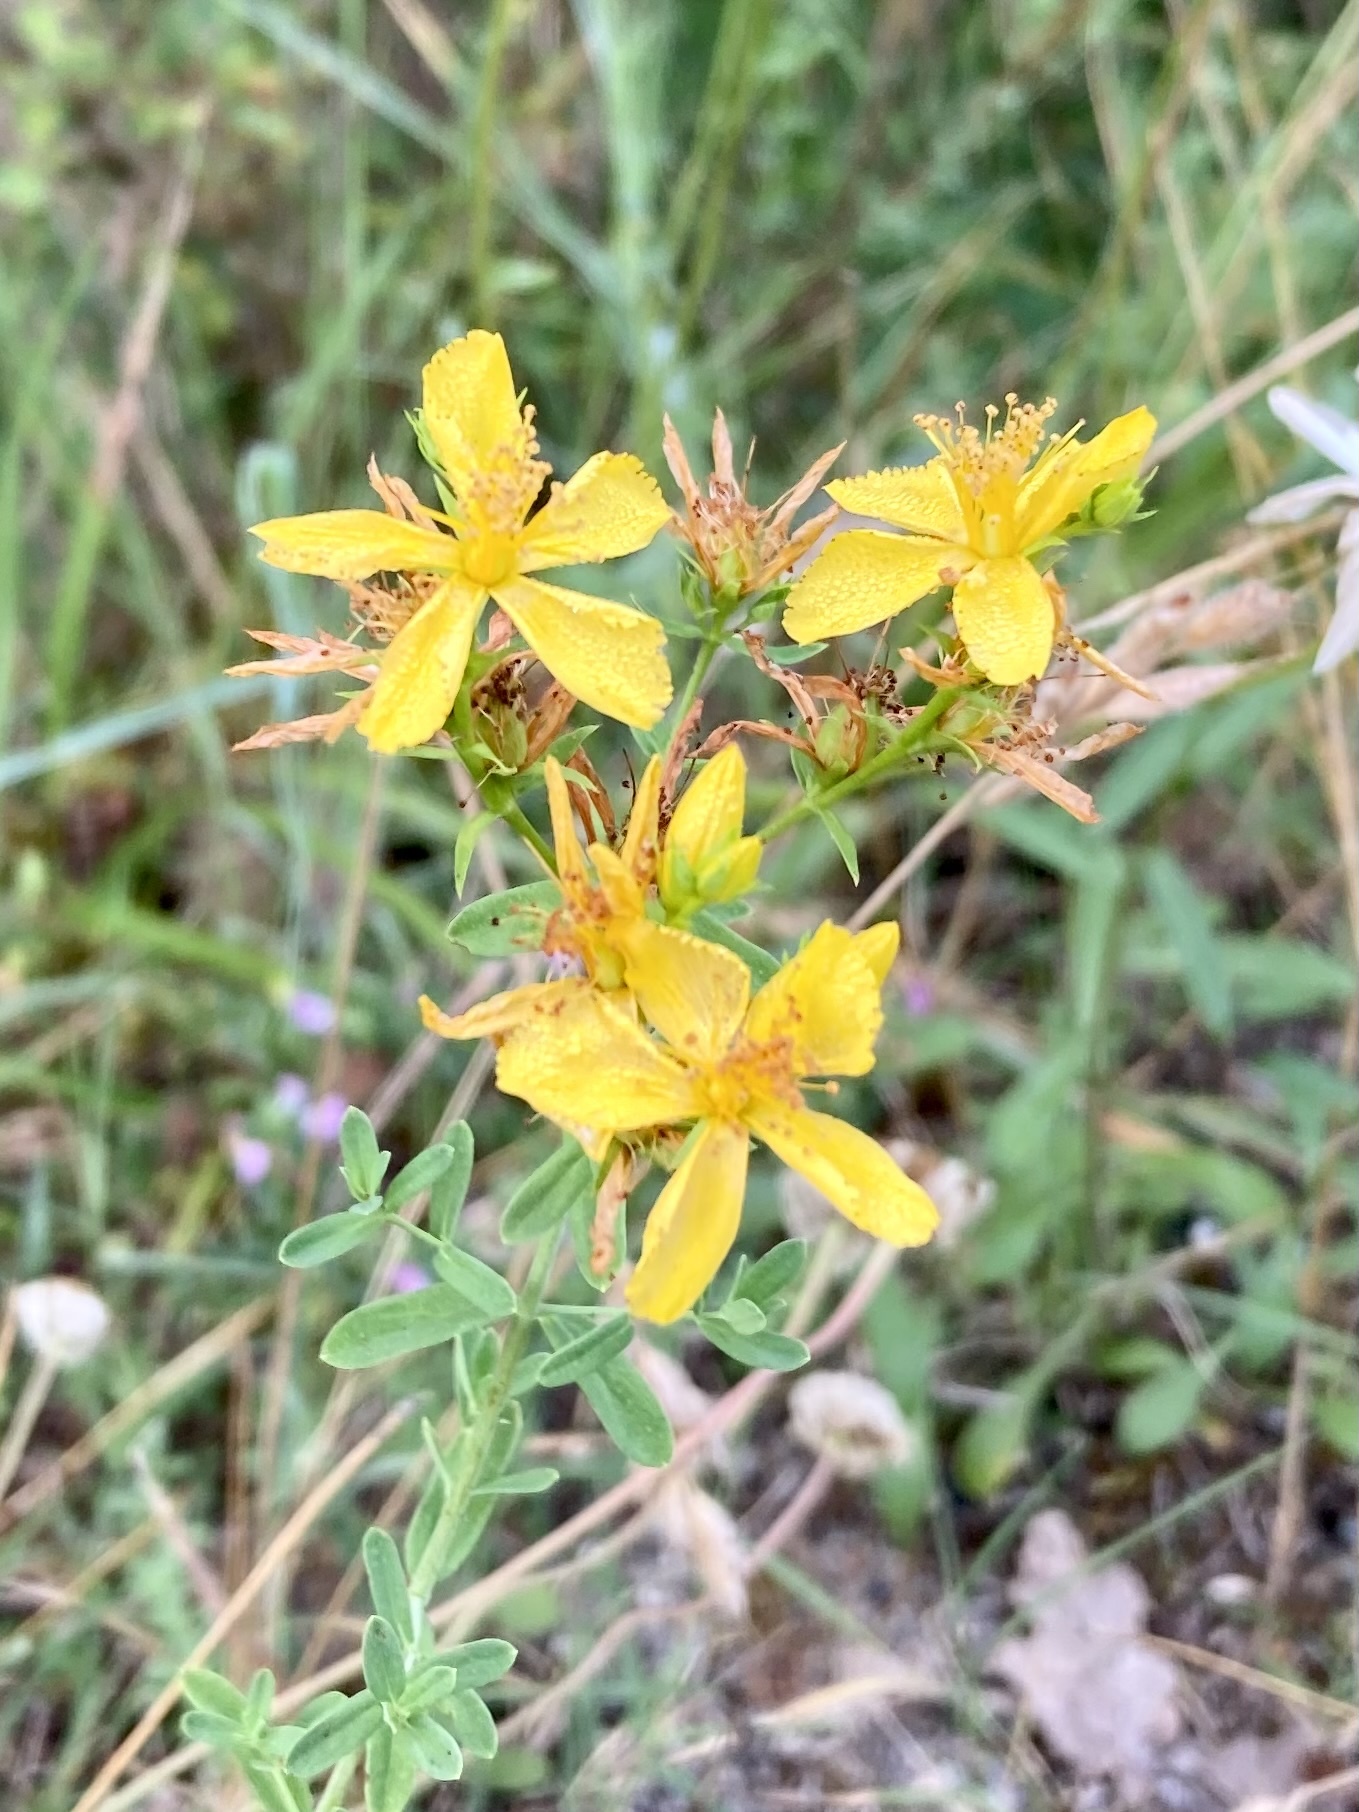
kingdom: Plantae
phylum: Tracheophyta
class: Magnoliopsida
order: Malpighiales
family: Hypericaceae
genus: Hypericum
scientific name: Hypericum perforatum
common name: Common st. johnswort
